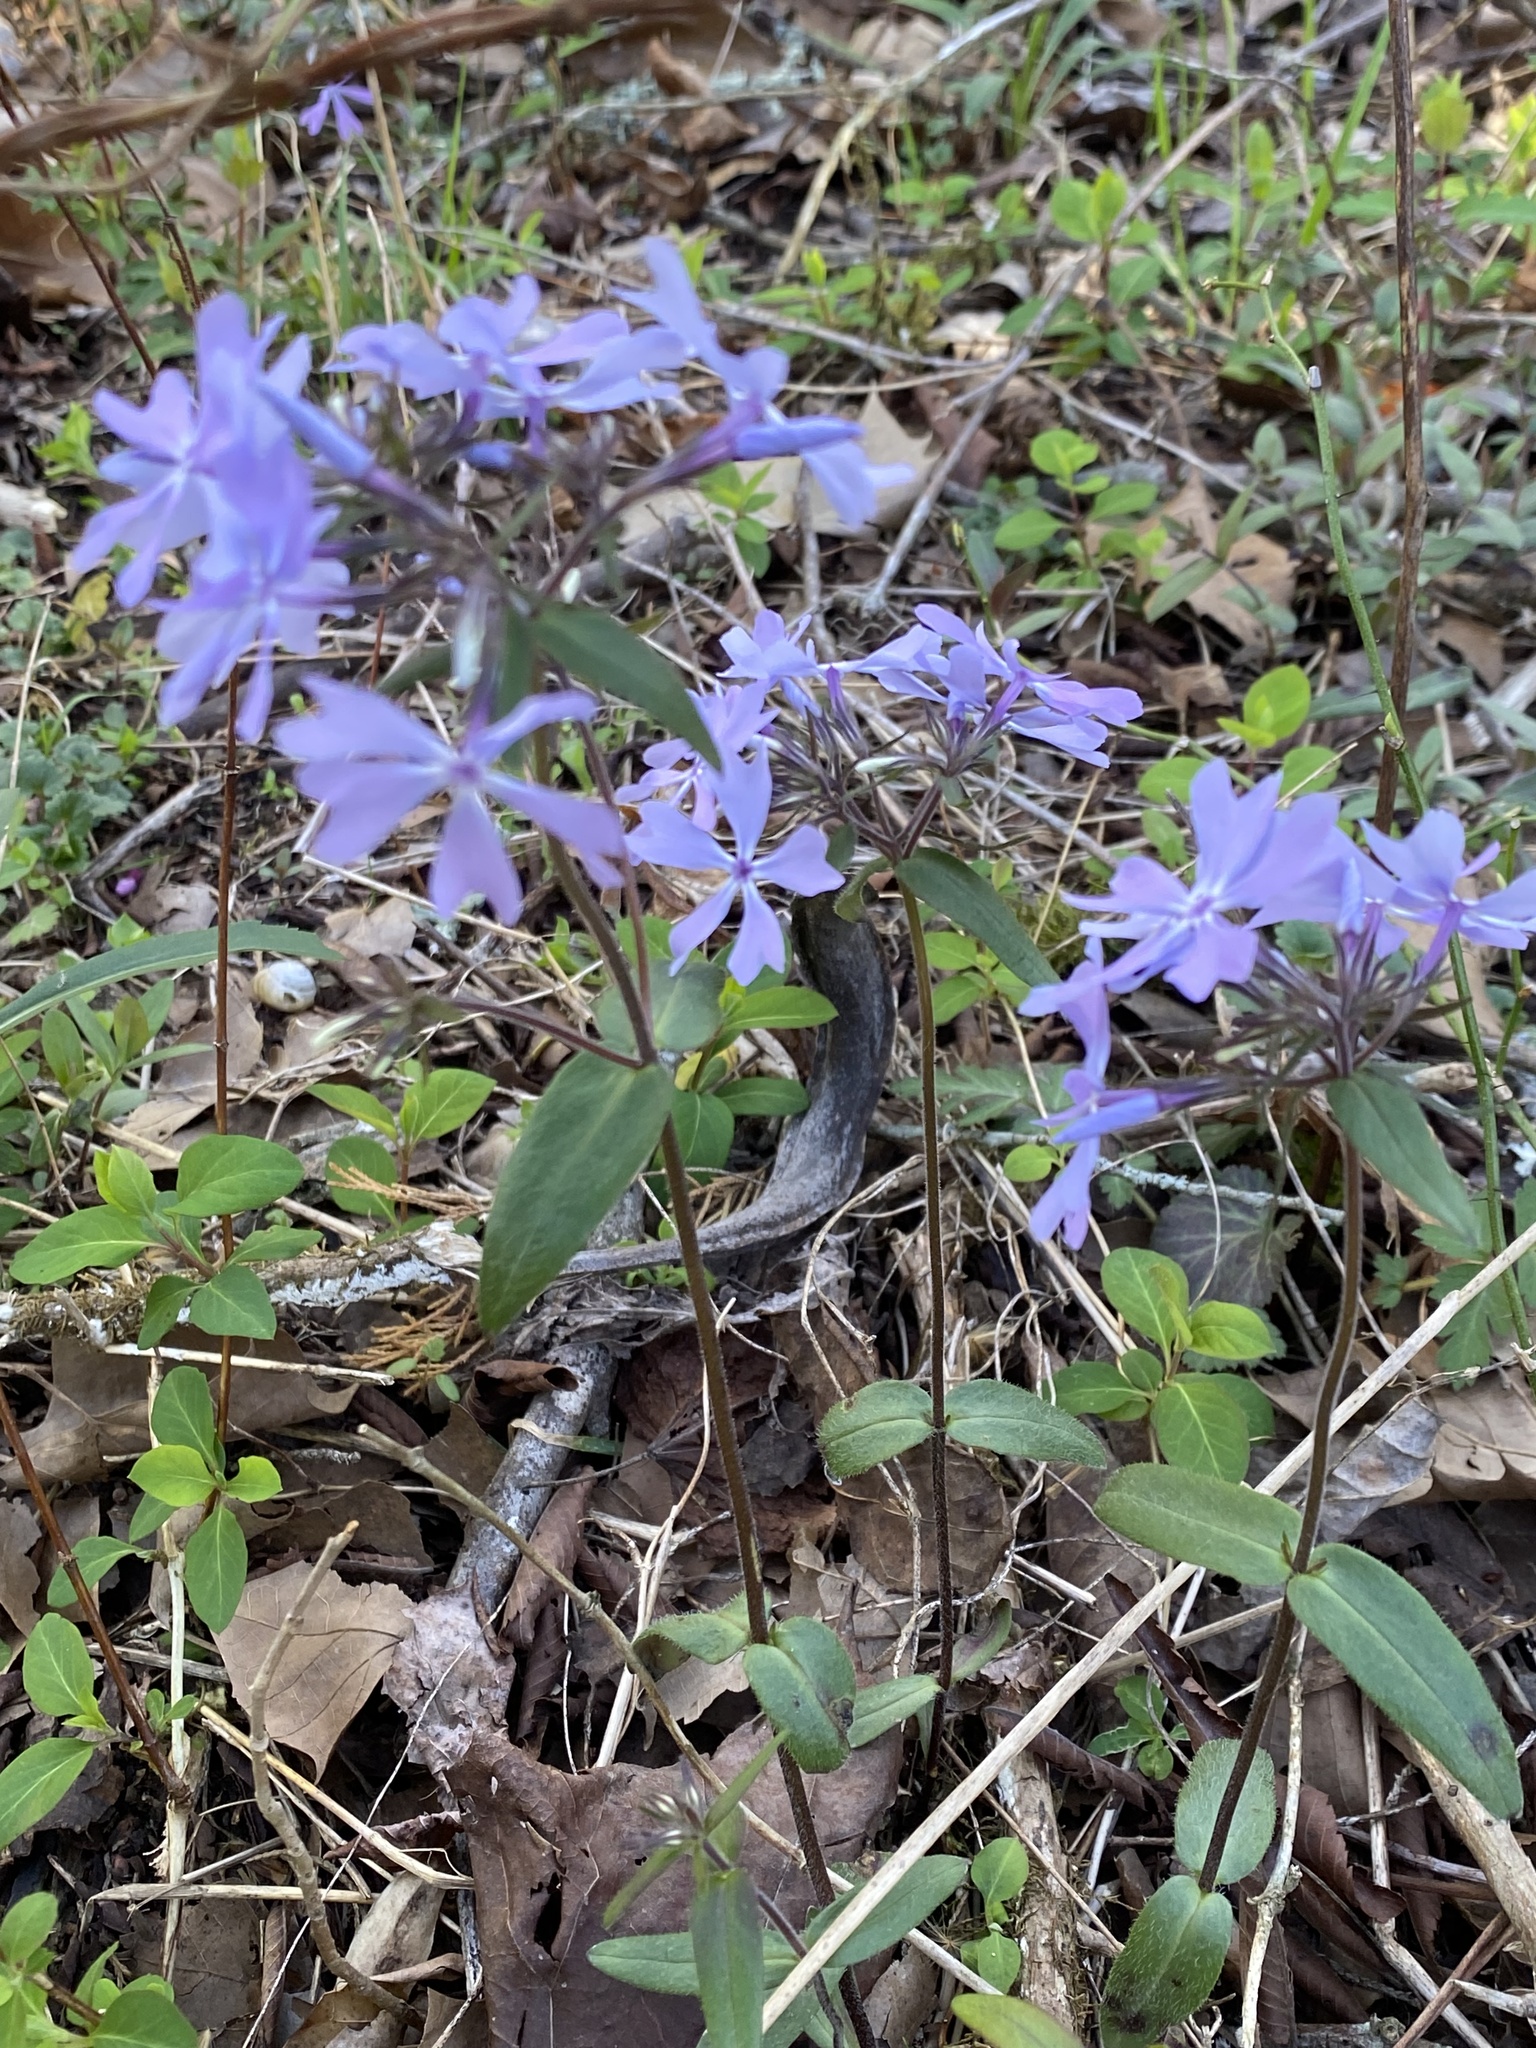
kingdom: Plantae
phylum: Tracheophyta
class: Magnoliopsida
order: Ericales
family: Polemoniaceae
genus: Phlox
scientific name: Phlox divaricata
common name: Blue phlox
